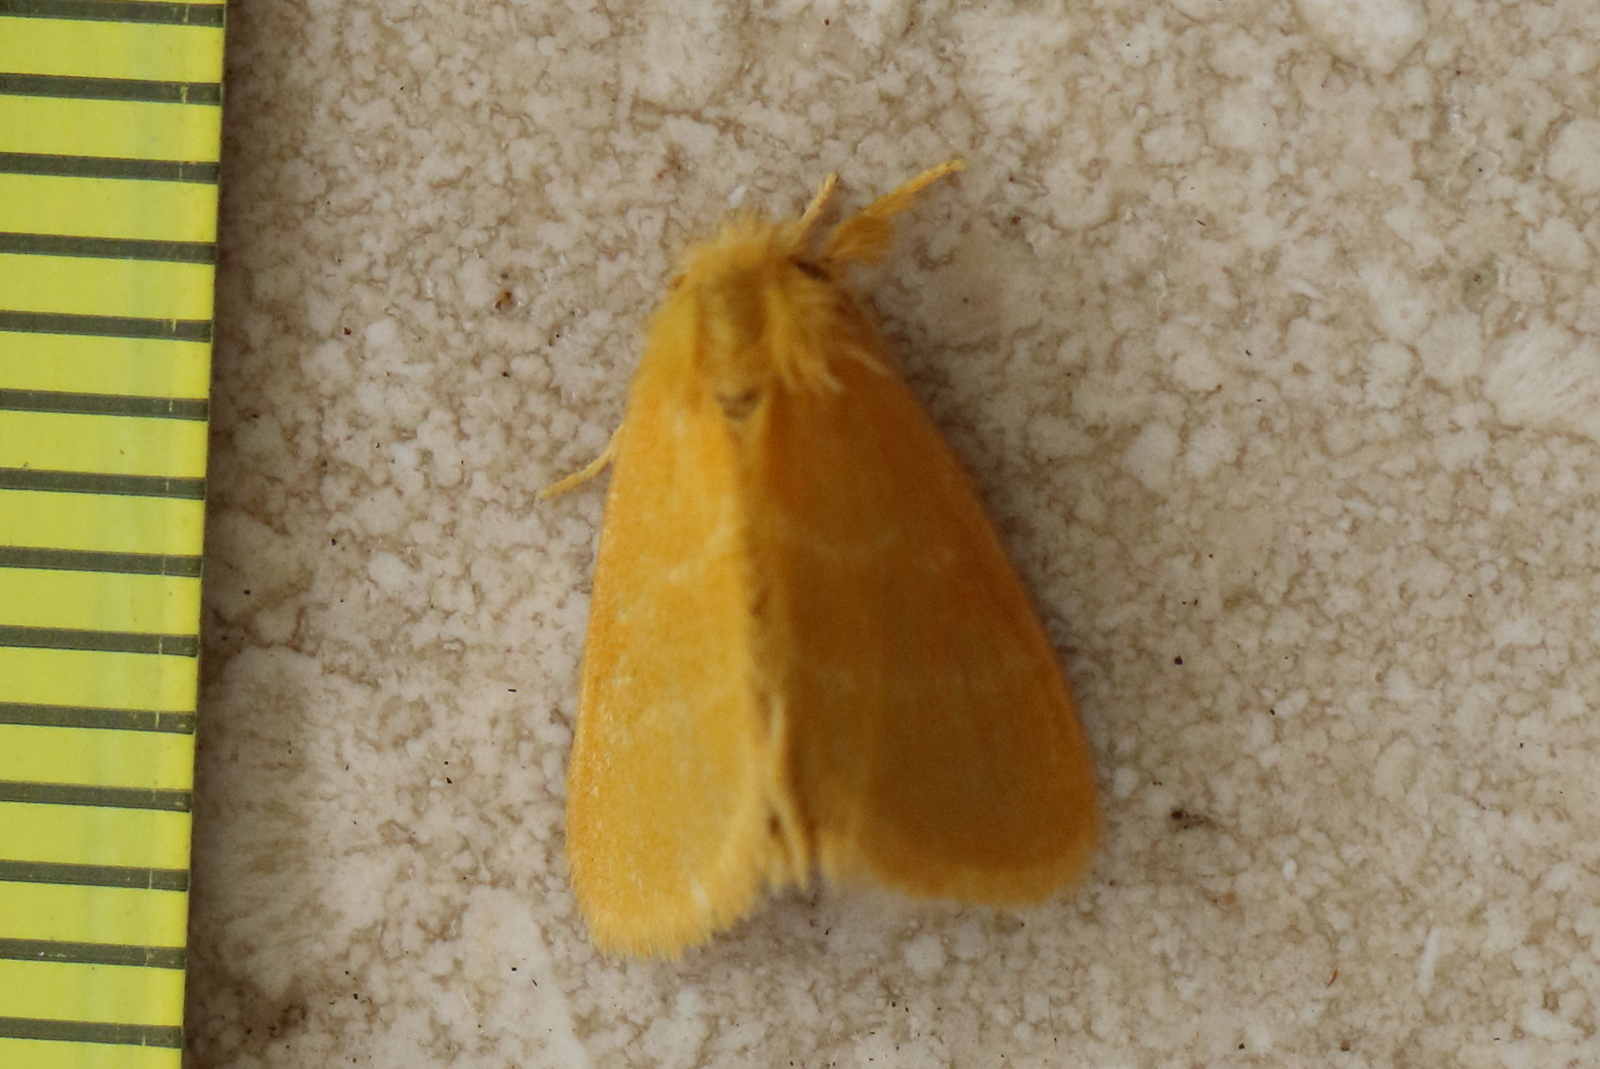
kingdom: Animalia
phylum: Arthropoda
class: Insecta
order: Lepidoptera
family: Erebidae
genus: Euproctis
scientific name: Euproctis lutea
